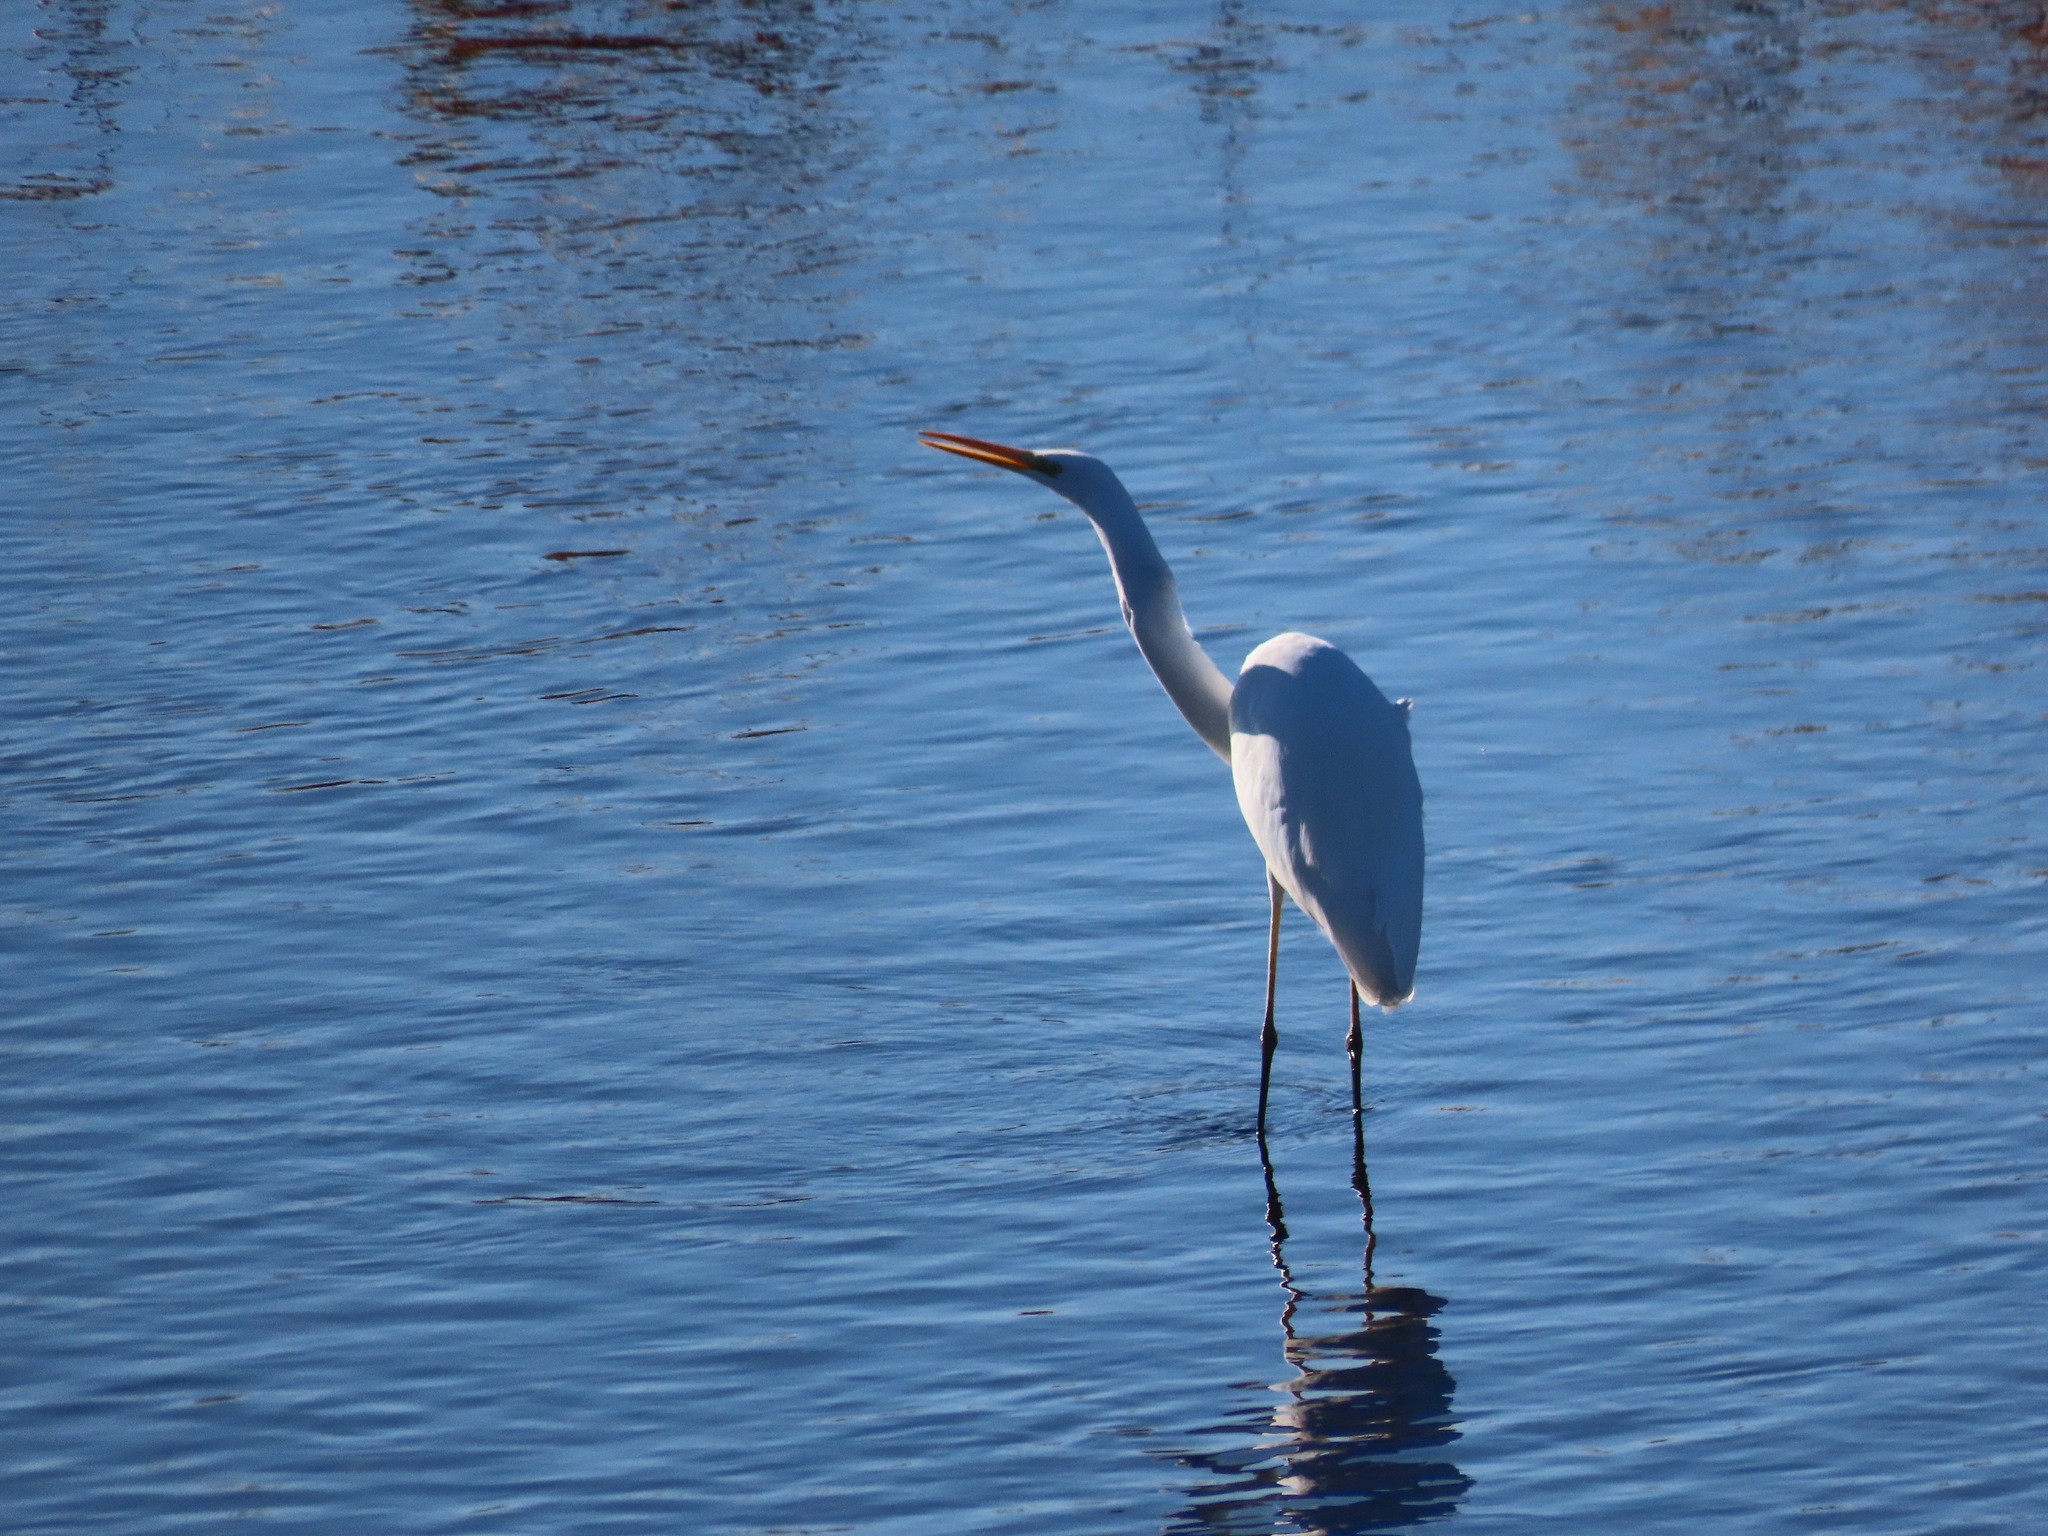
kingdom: Animalia
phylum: Chordata
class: Aves
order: Pelecaniformes
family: Ardeidae
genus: Ardea
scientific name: Ardea alba
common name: Great egret
